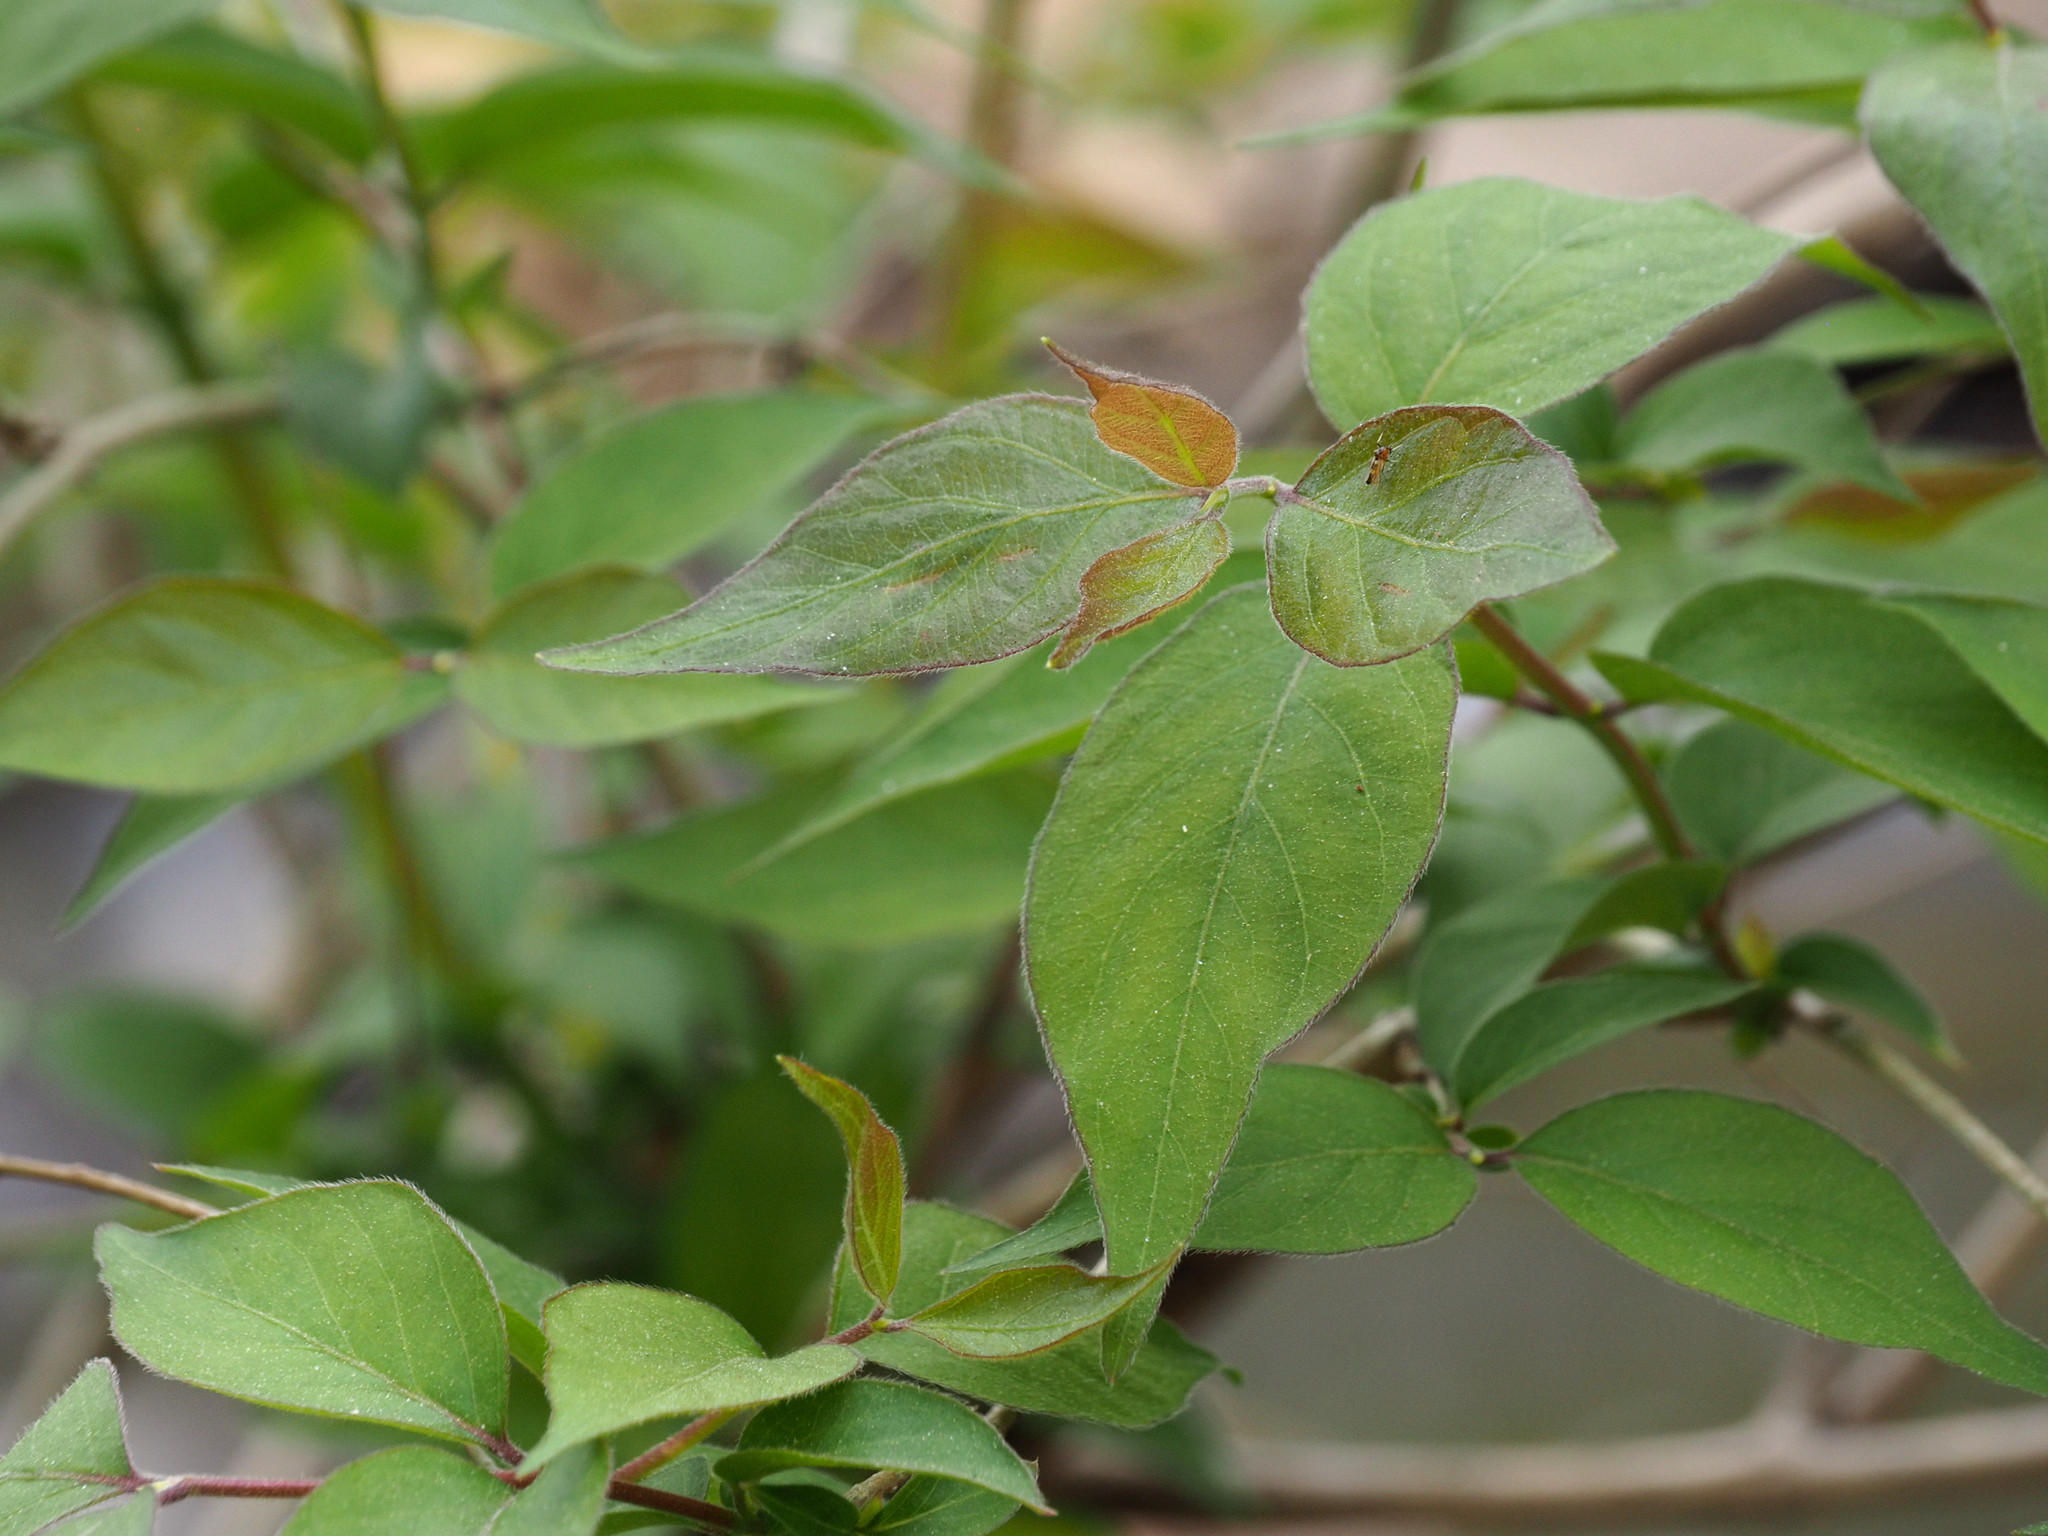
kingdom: Plantae
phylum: Tracheophyta
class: Magnoliopsida
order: Dipsacales
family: Caprifoliaceae
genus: Lonicera
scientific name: Lonicera maackii
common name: Amur honeysuckle
